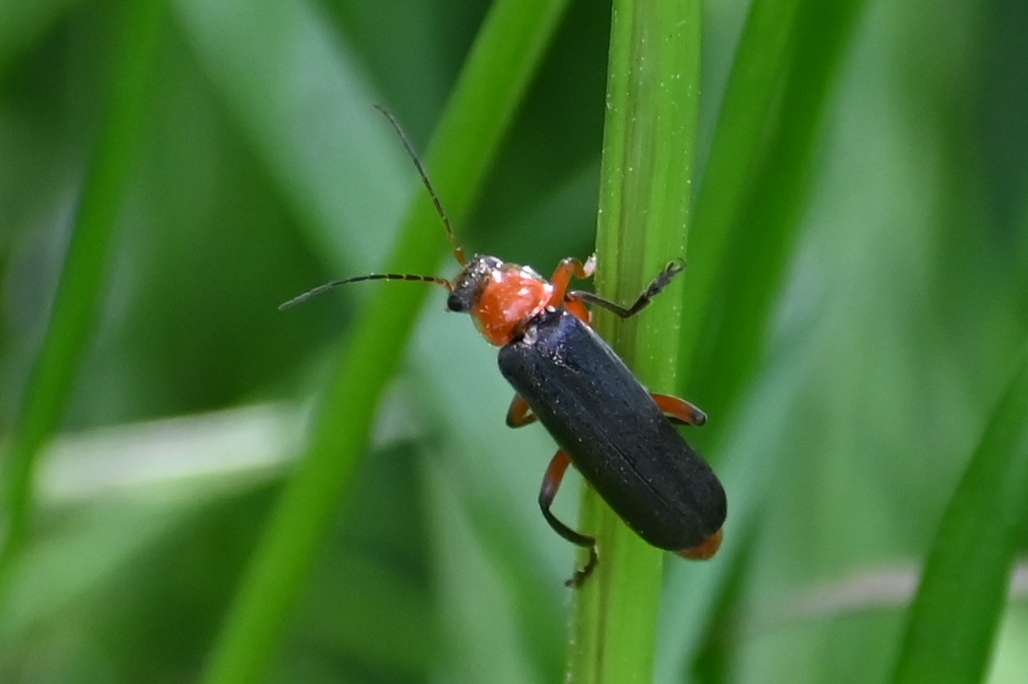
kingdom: Animalia
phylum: Arthropoda
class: Insecta
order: Coleoptera
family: Cantharidae
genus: Cantharis
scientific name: Cantharis pellucida
